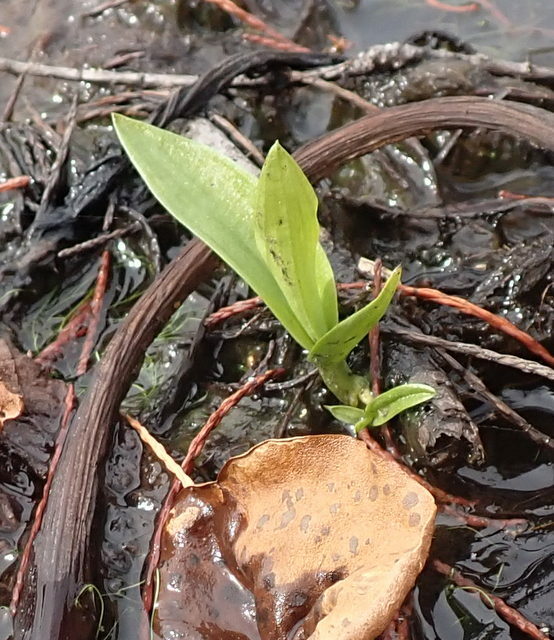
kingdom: Plantae
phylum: Tracheophyta
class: Liliopsida
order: Asparagales
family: Orchidaceae
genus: Habenaria
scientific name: Habenaria repens
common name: Water orchid
